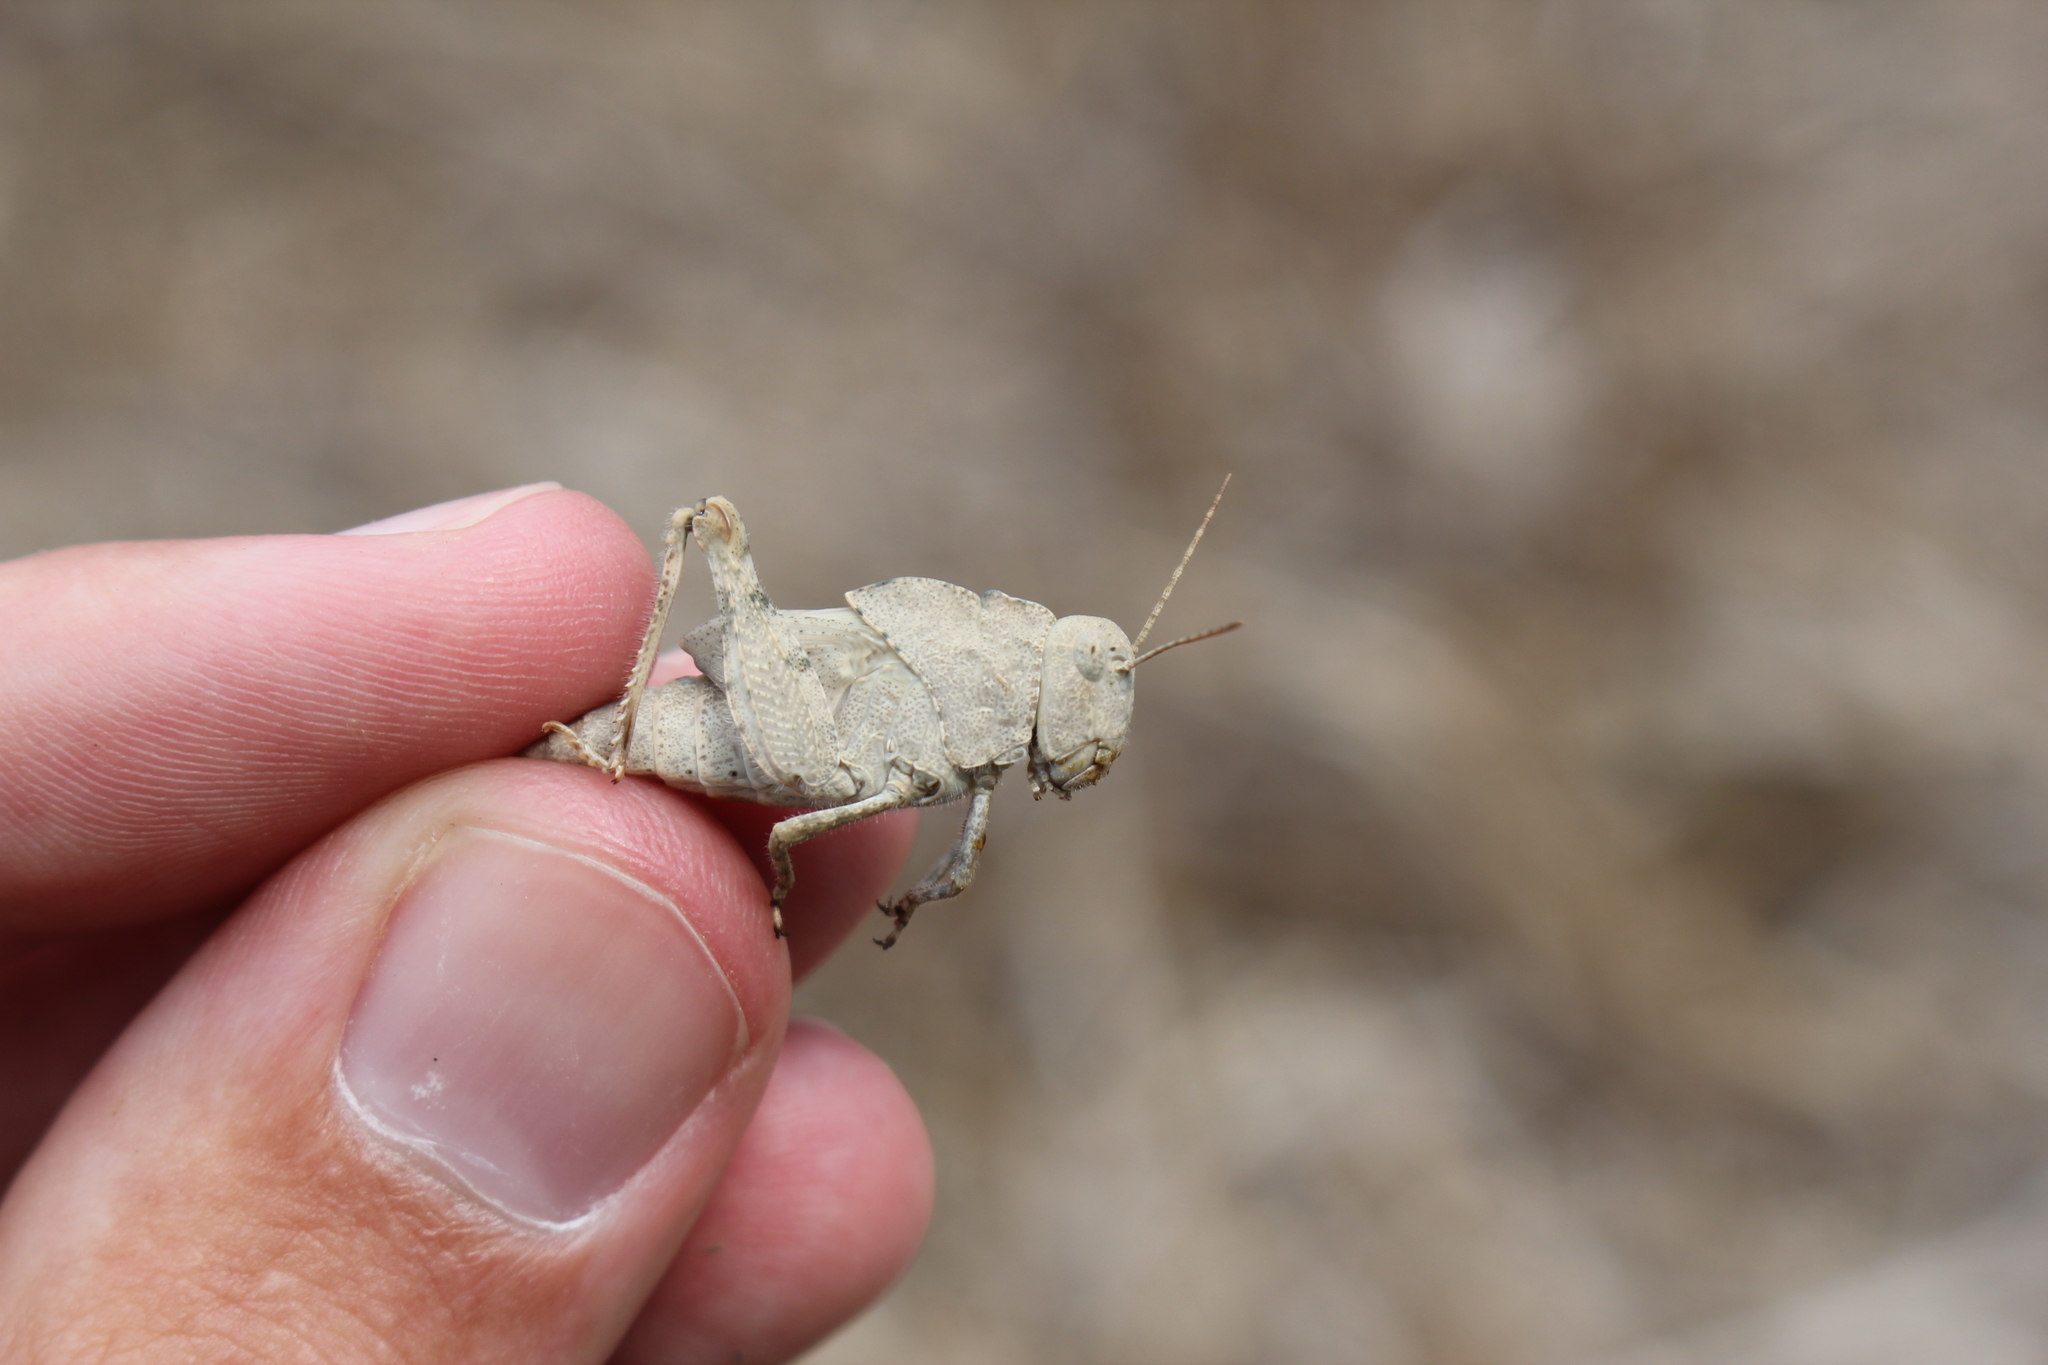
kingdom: Animalia
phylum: Arthropoda
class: Insecta
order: Orthoptera
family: Acrididae
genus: Dissosteira
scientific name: Dissosteira carolina
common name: Carolina grasshopper
